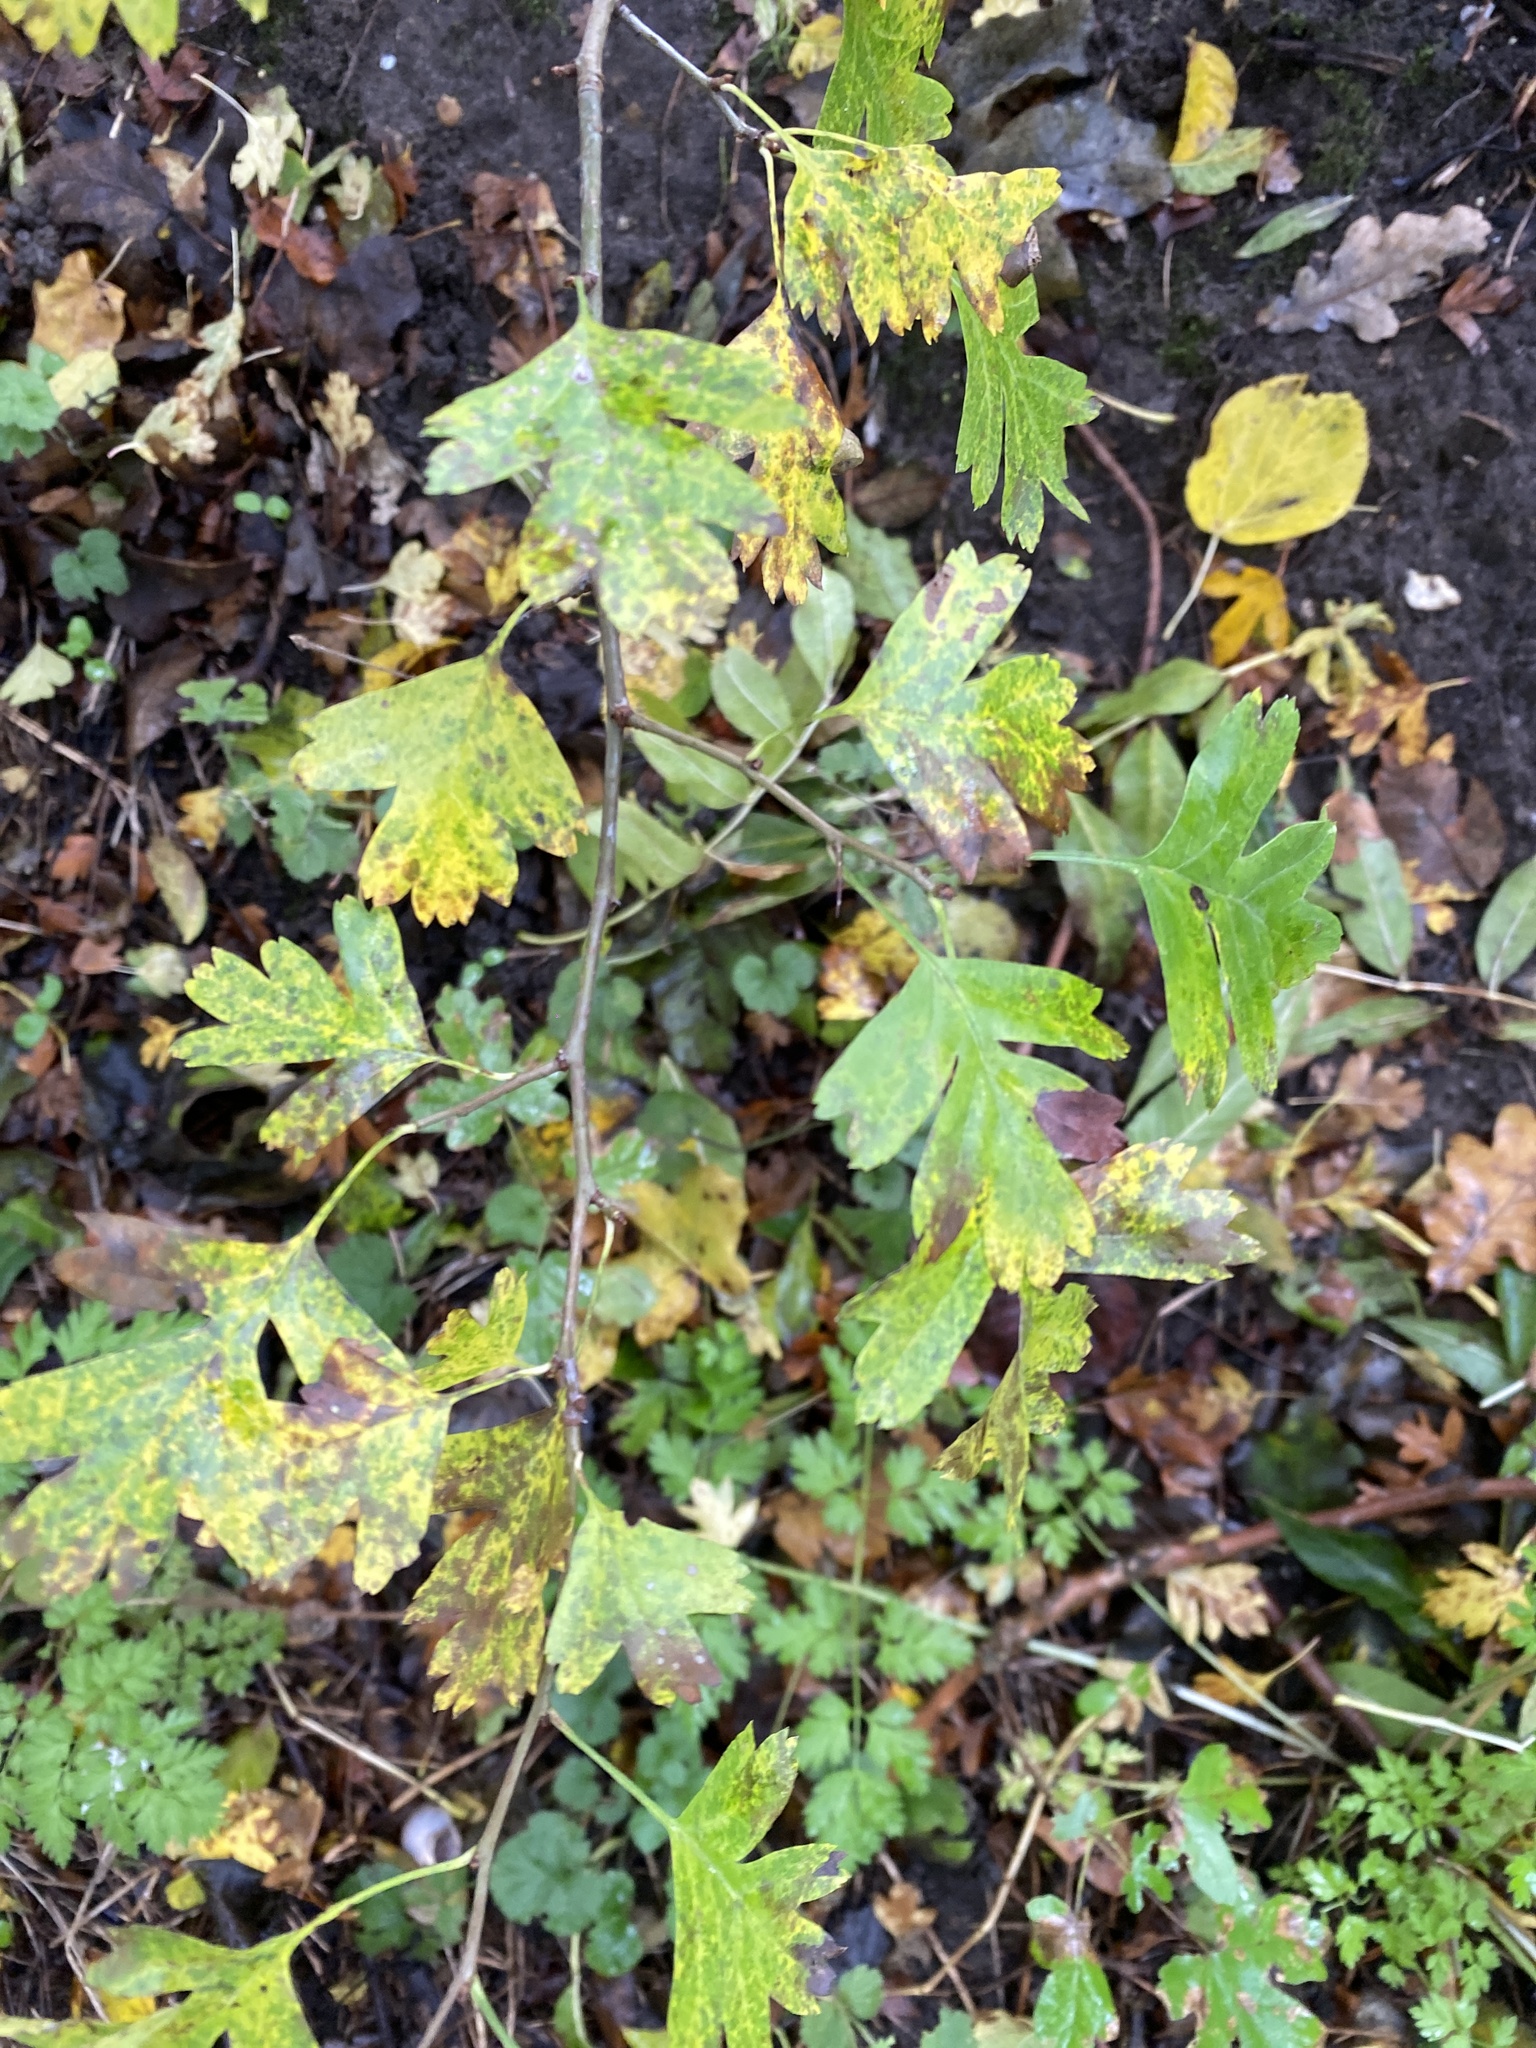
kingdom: Plantae
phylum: Tracheophyta
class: Magnoliopsida
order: Rosales
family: Rosaceae
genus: Crataegus
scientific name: Crataegus monogyna
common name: Hawthorn
